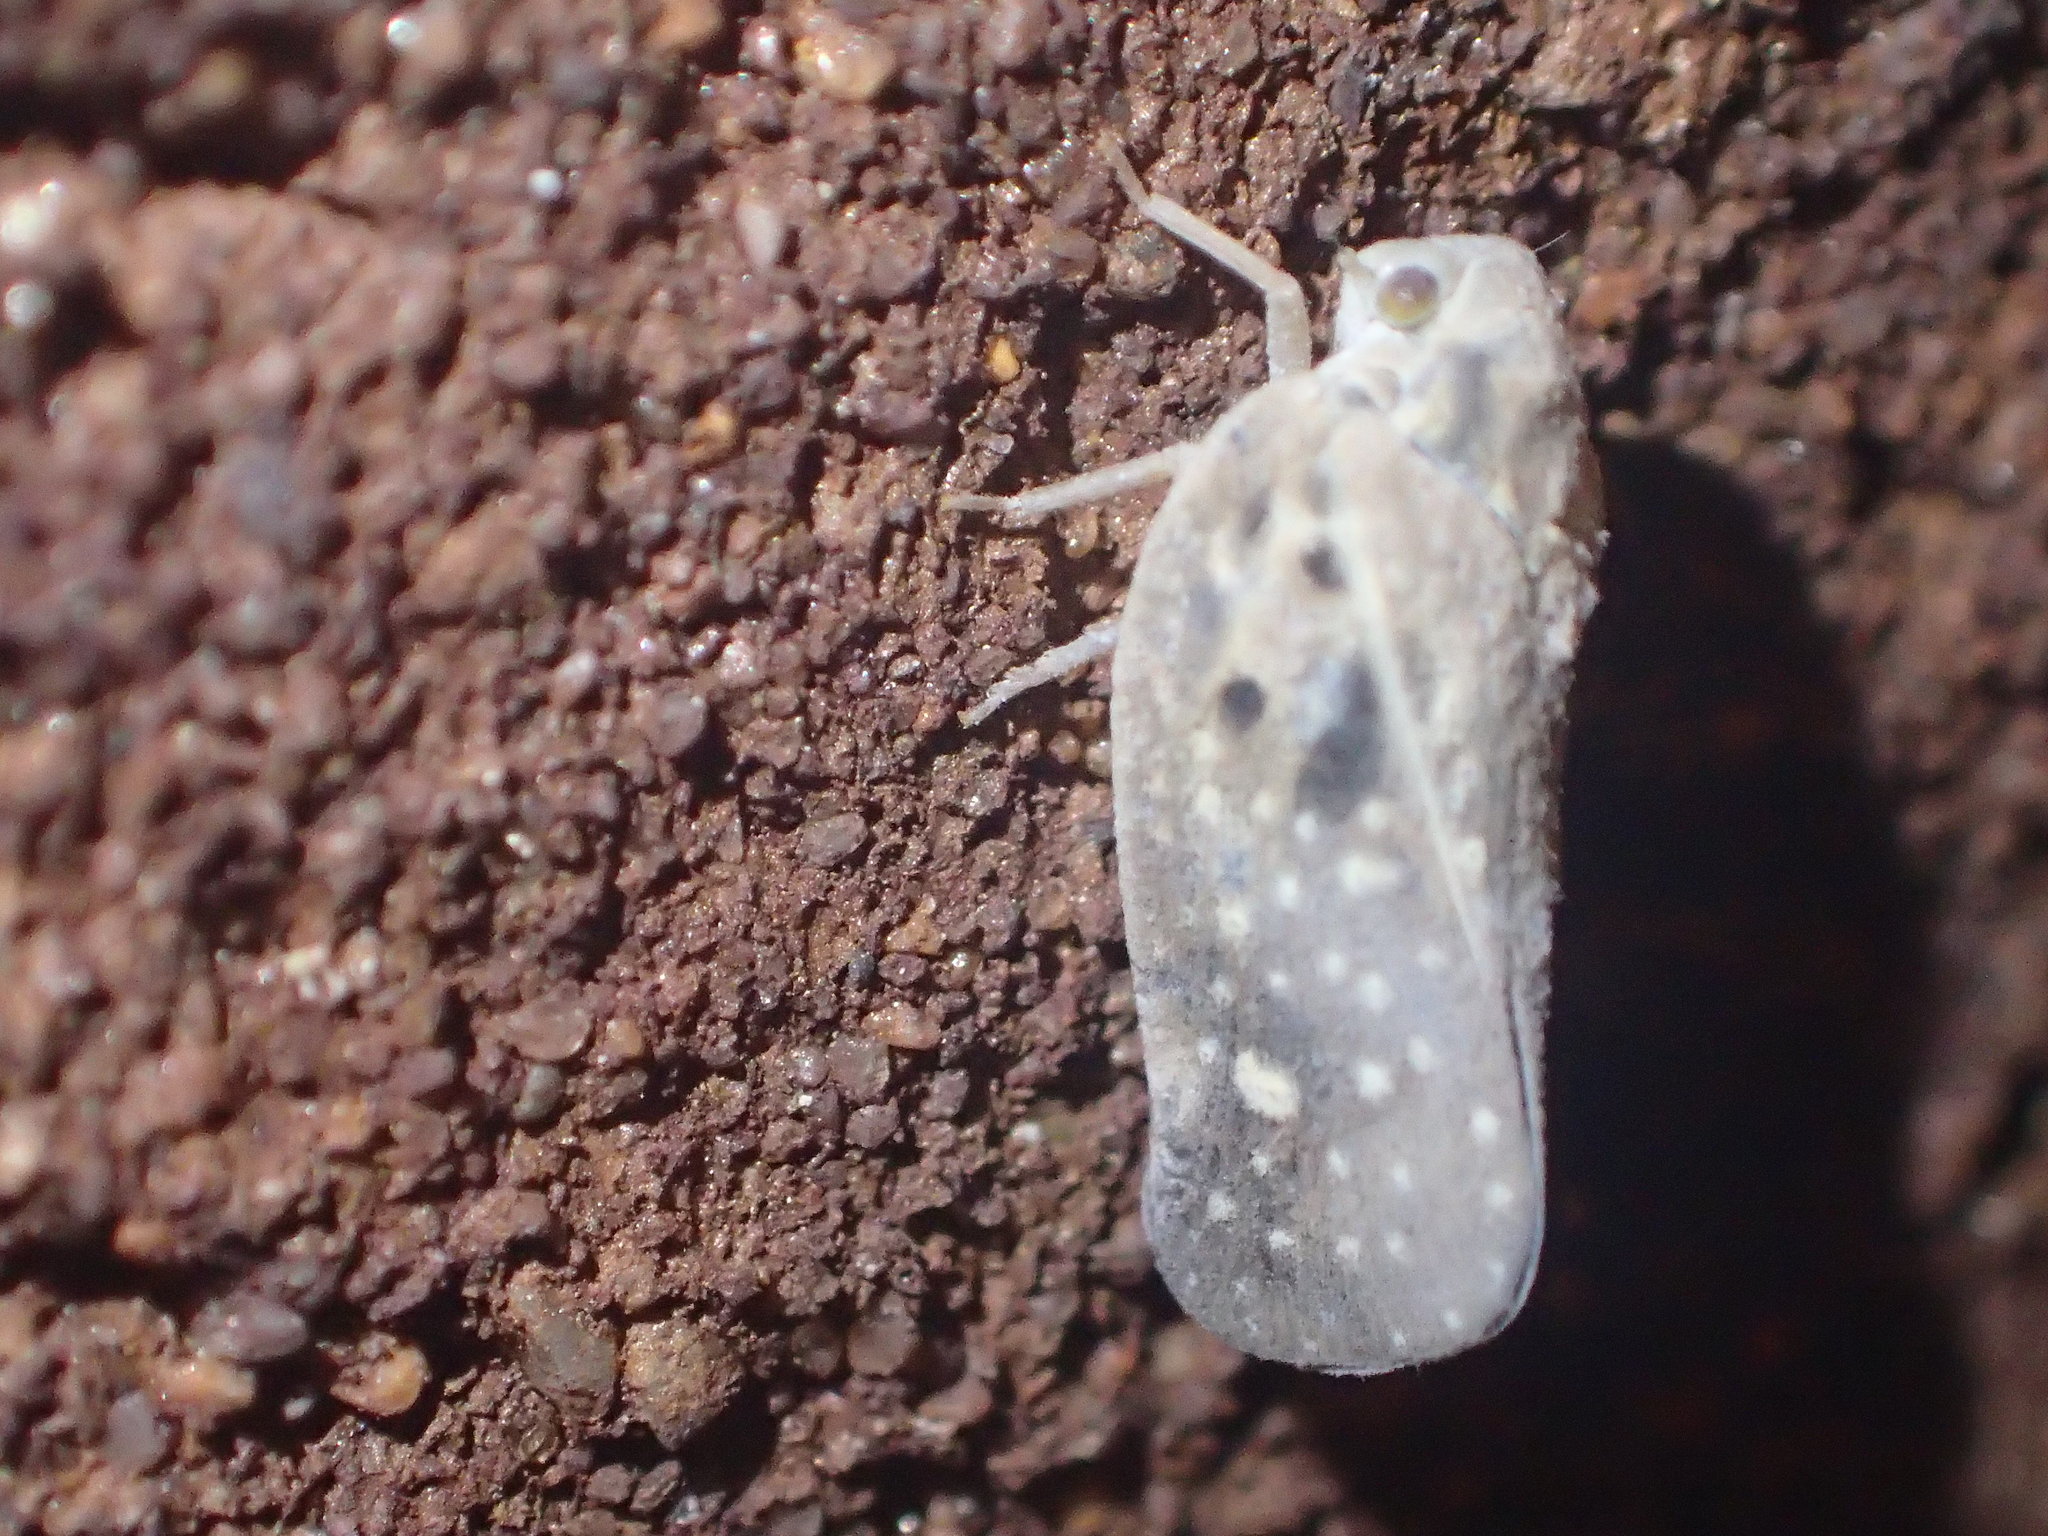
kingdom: Animalia
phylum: Arthropoda
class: Insecta
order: Hemiptera
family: Flatidae
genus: Metcalfa
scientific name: Metcalfa pruinosa
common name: Citrus flatid planthopper
